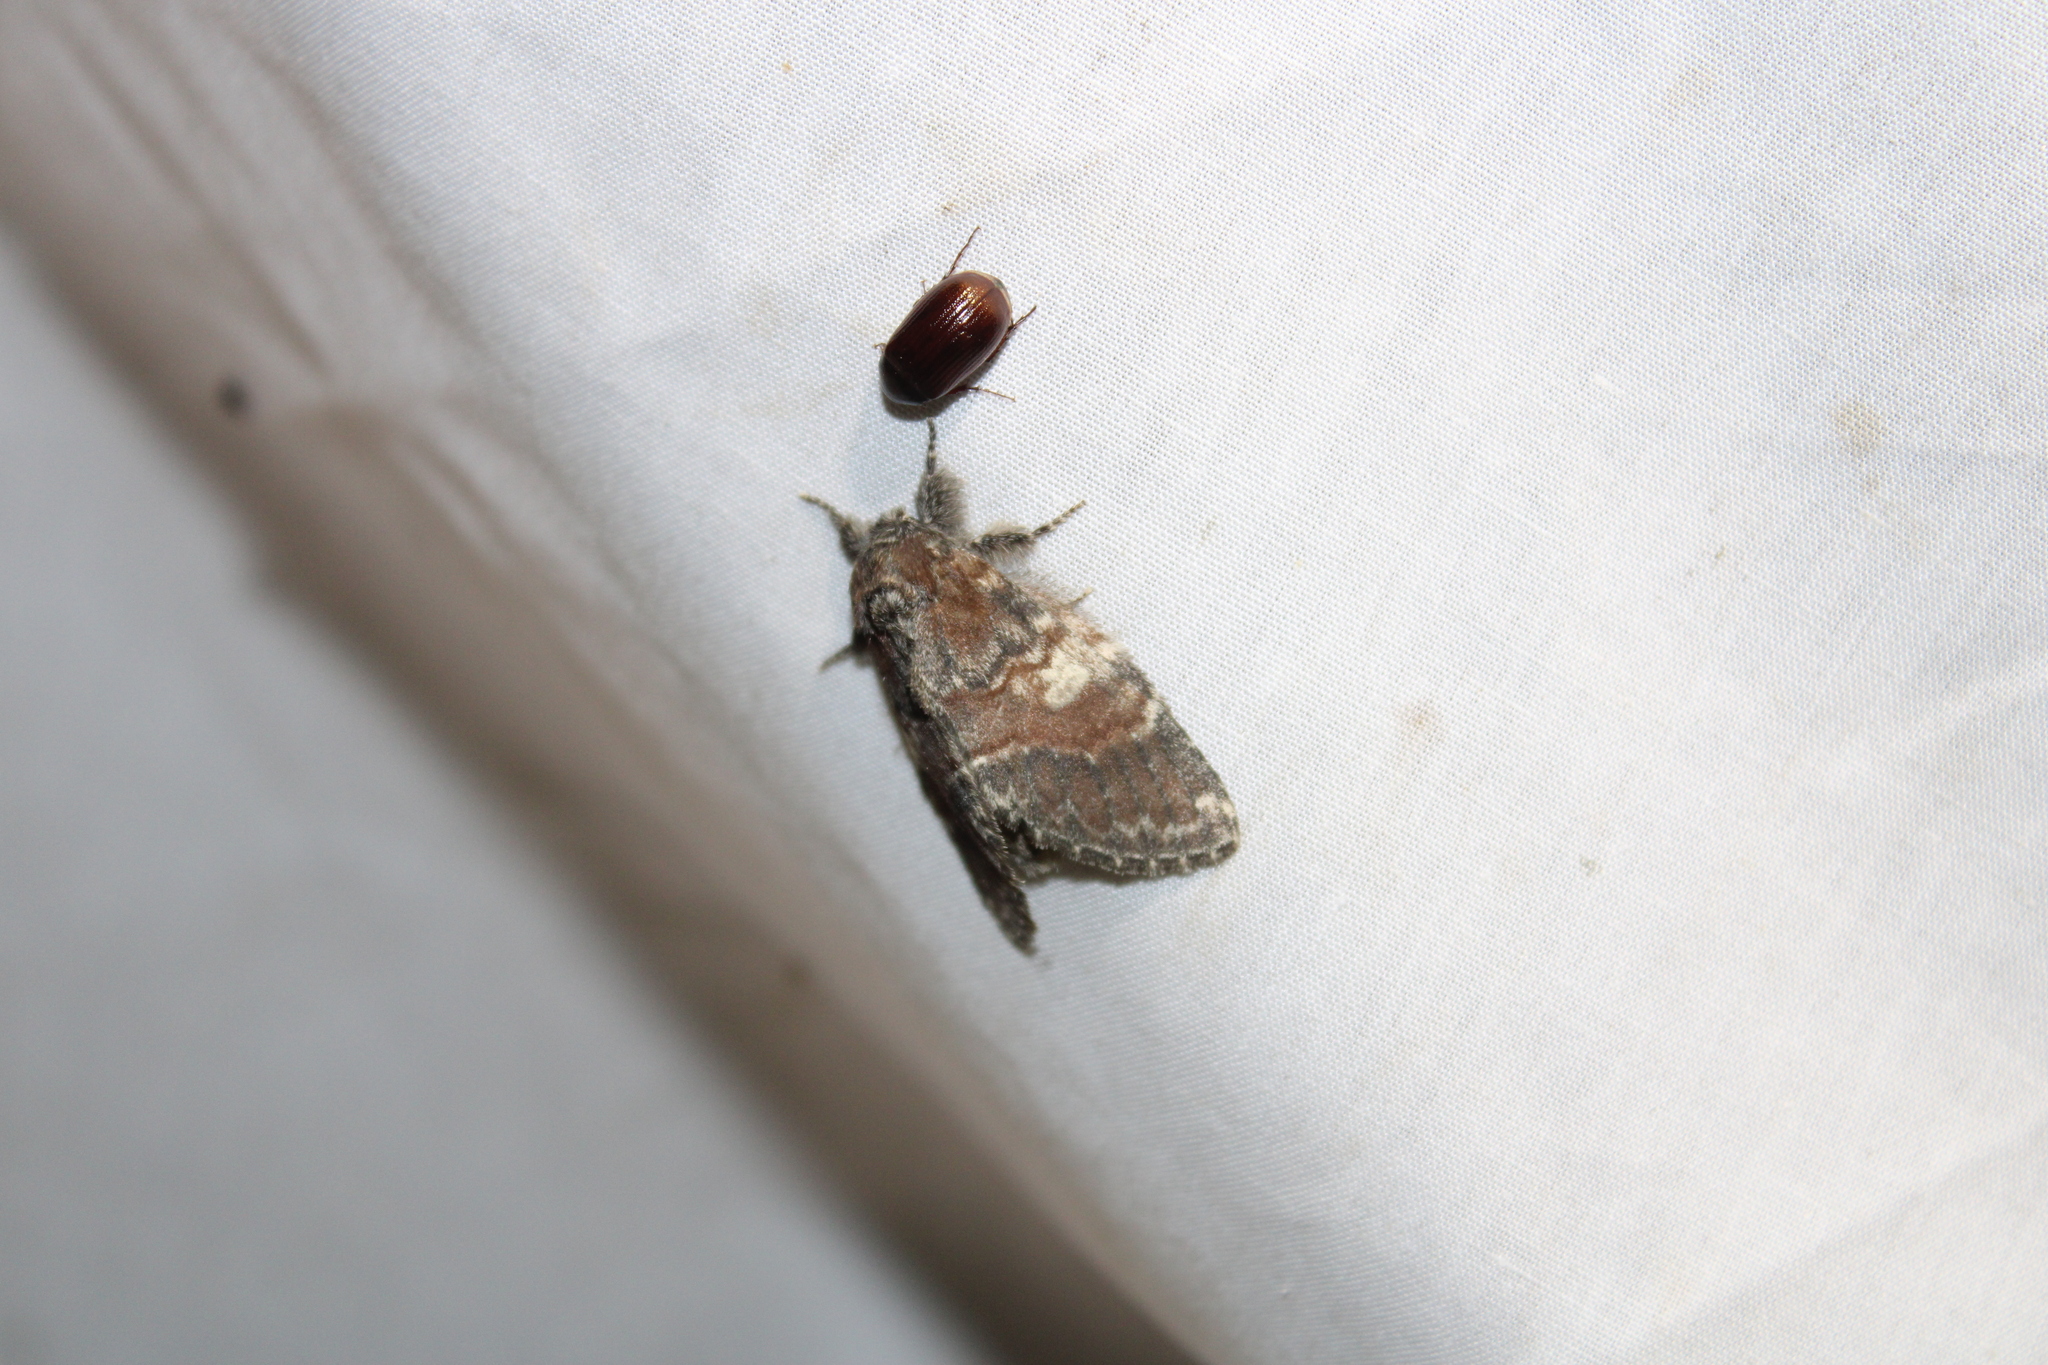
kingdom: Animalia
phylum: Arthropoda
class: Insecta
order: Lepidoptera
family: Notodontidae
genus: Peridea
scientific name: Peridea ferruginea
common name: Chocolate prominent
